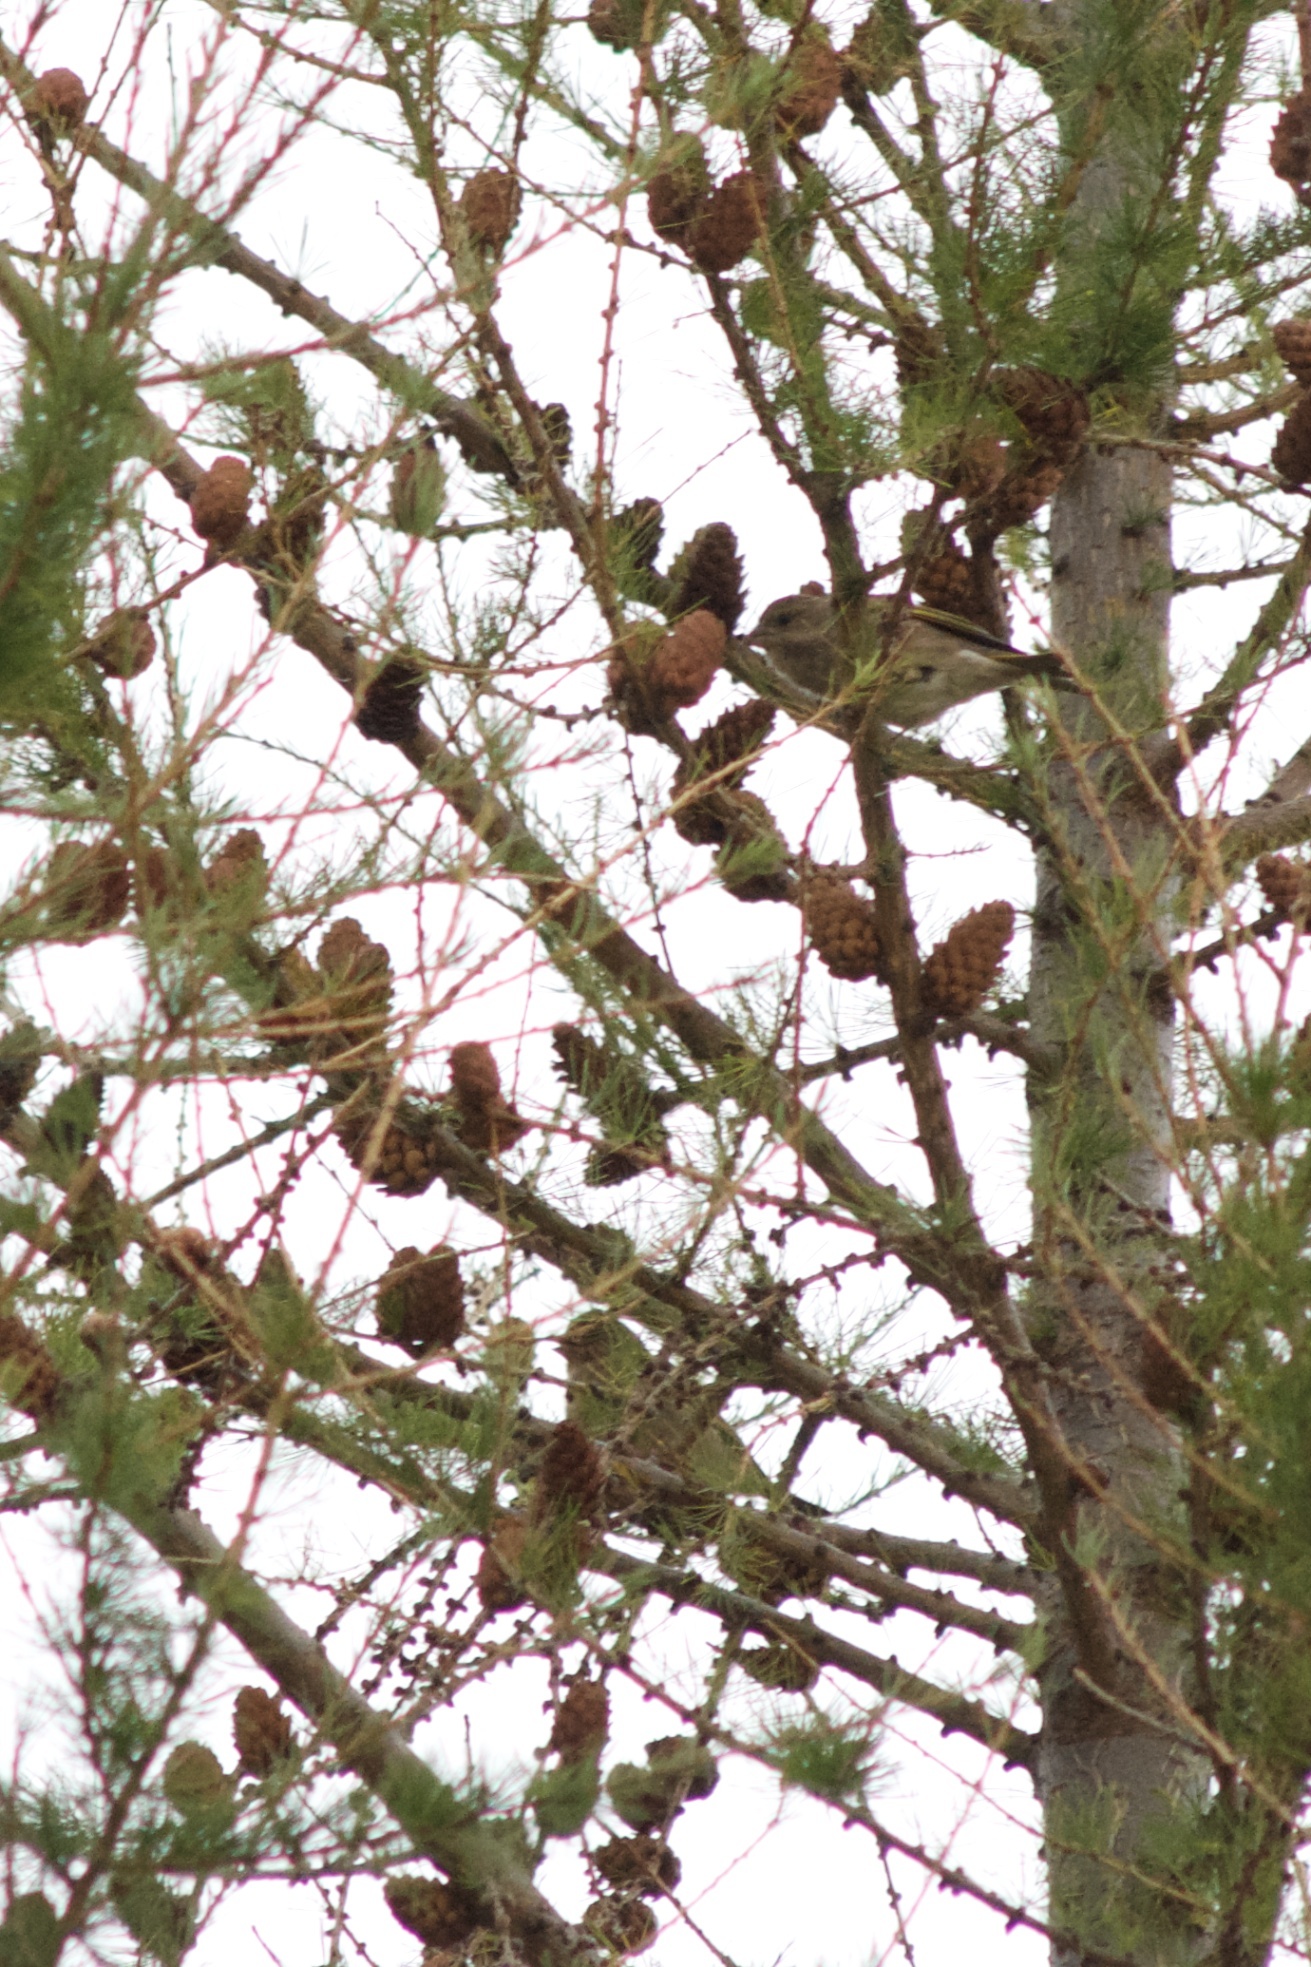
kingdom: Plantae
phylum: Tracheophyta
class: Liliopsida
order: Poales
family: Poaceae
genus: Chloris
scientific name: Chloris chloris
